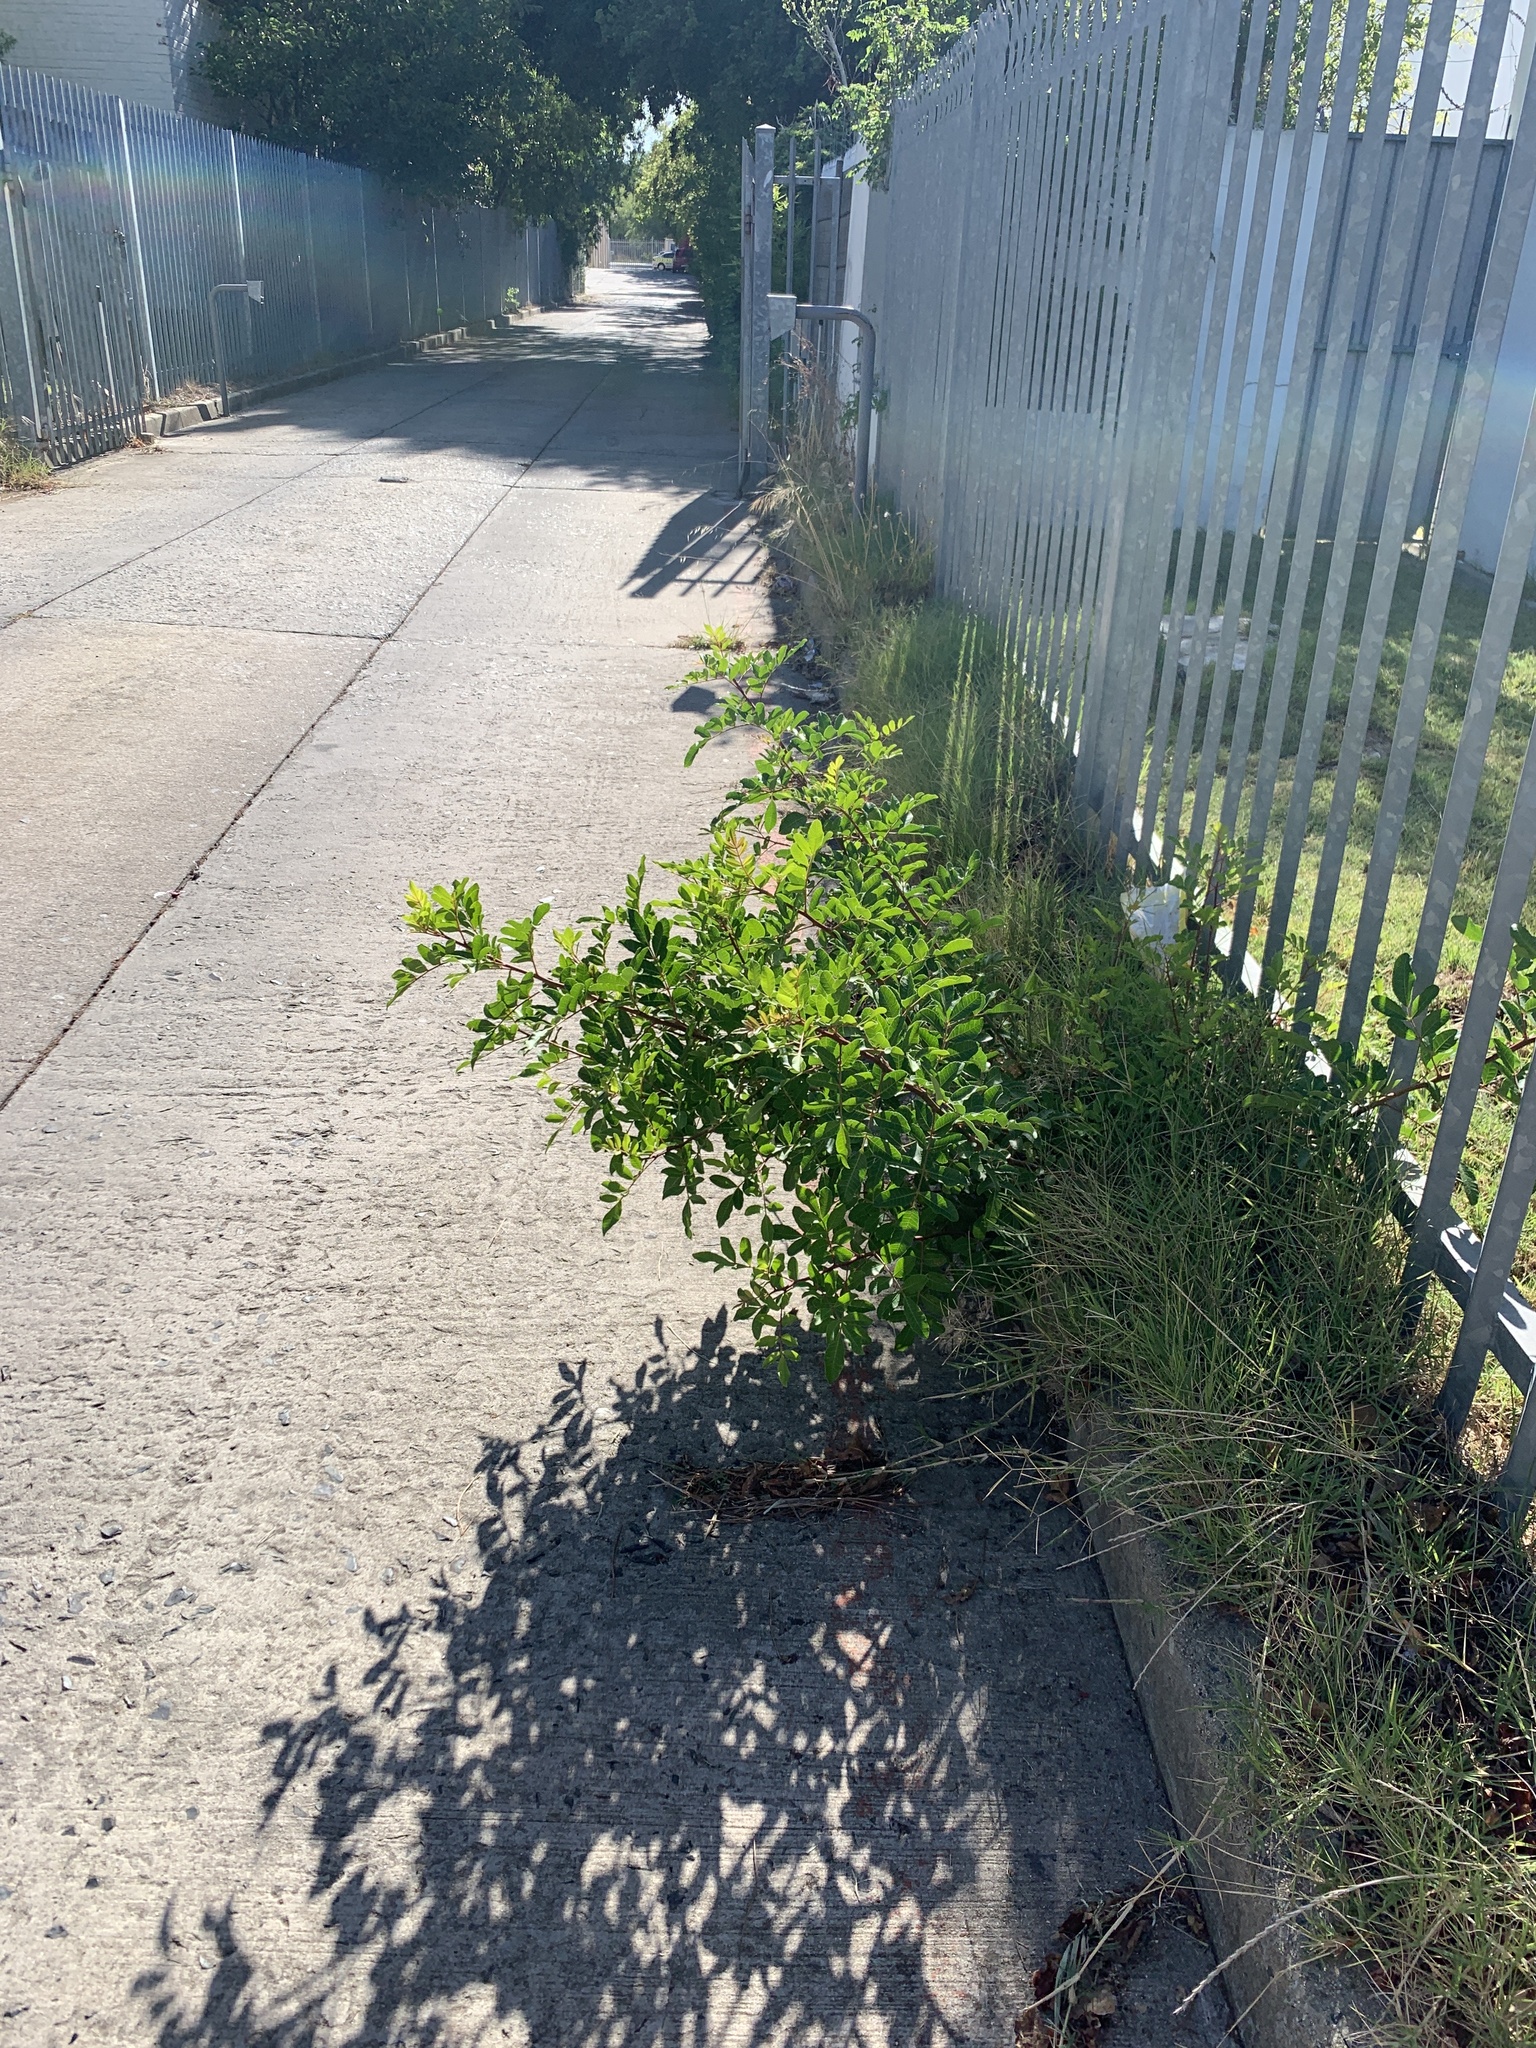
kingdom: Plantae
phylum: Tracheophyta
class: Magnoliopsida
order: Sapindales
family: Anacardiaceae
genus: Schinus
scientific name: Schinus terebinthifolia
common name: Brazilian peppertree
